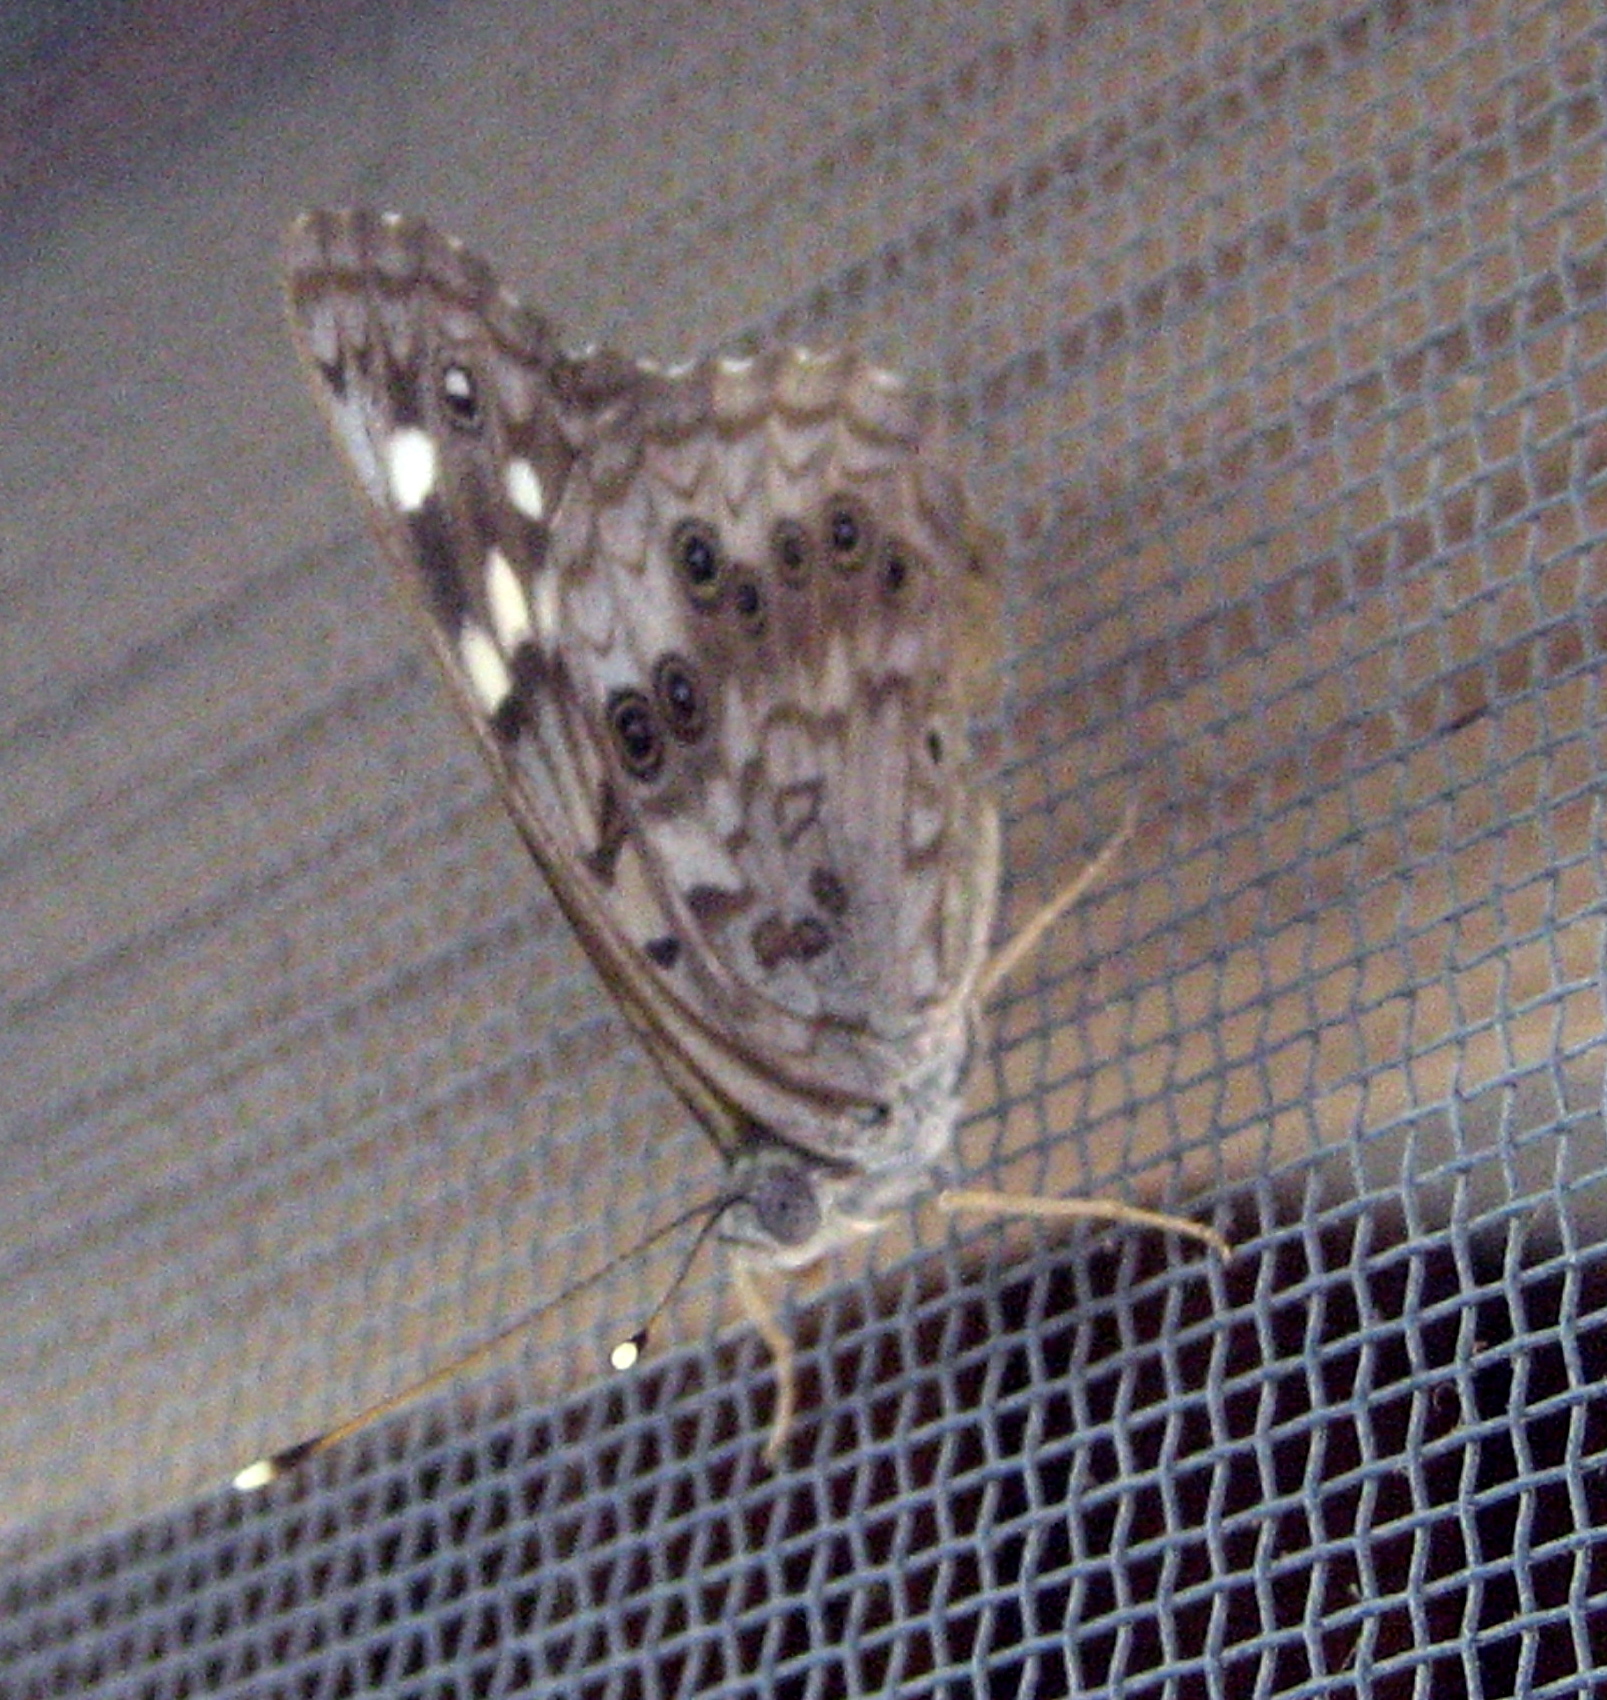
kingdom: Animalia
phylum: Arthropoda
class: Insecta
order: Lepidoptera
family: Nymphalidae
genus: Asterocampa
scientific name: Asterocampa celtis
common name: Hackberry emperor
